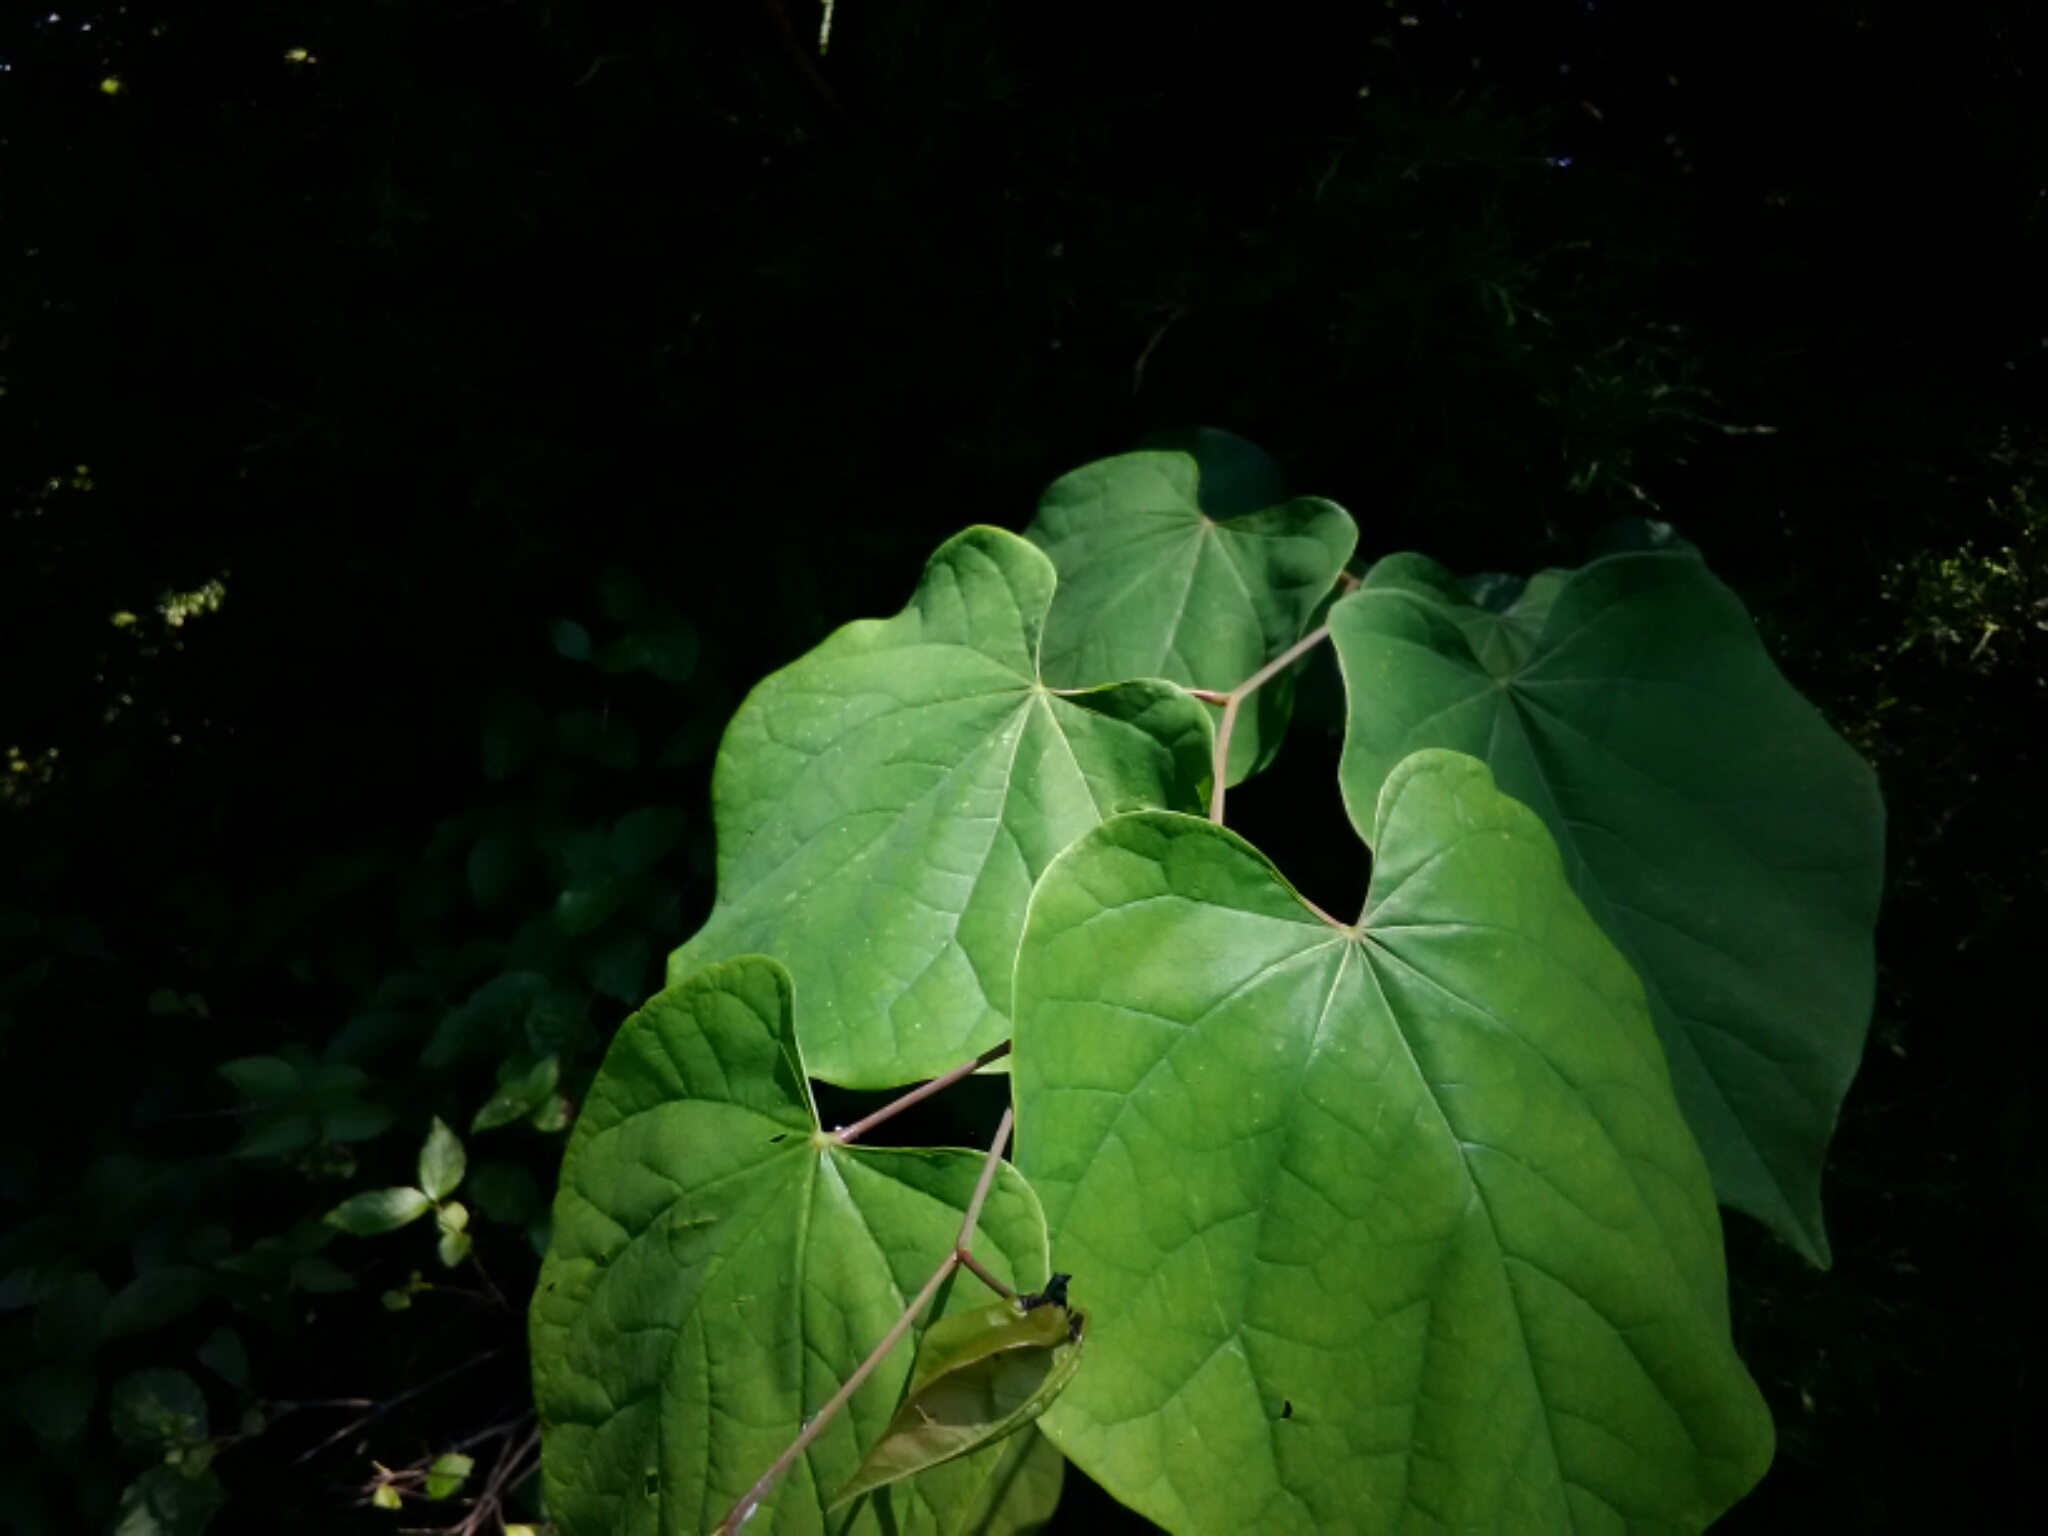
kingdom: Plantae
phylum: Tracheophyta
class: Magnoliopsida
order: Fabales
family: Fabaceae
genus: Cercis
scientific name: Cercis canadensis
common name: Eastern redbud
